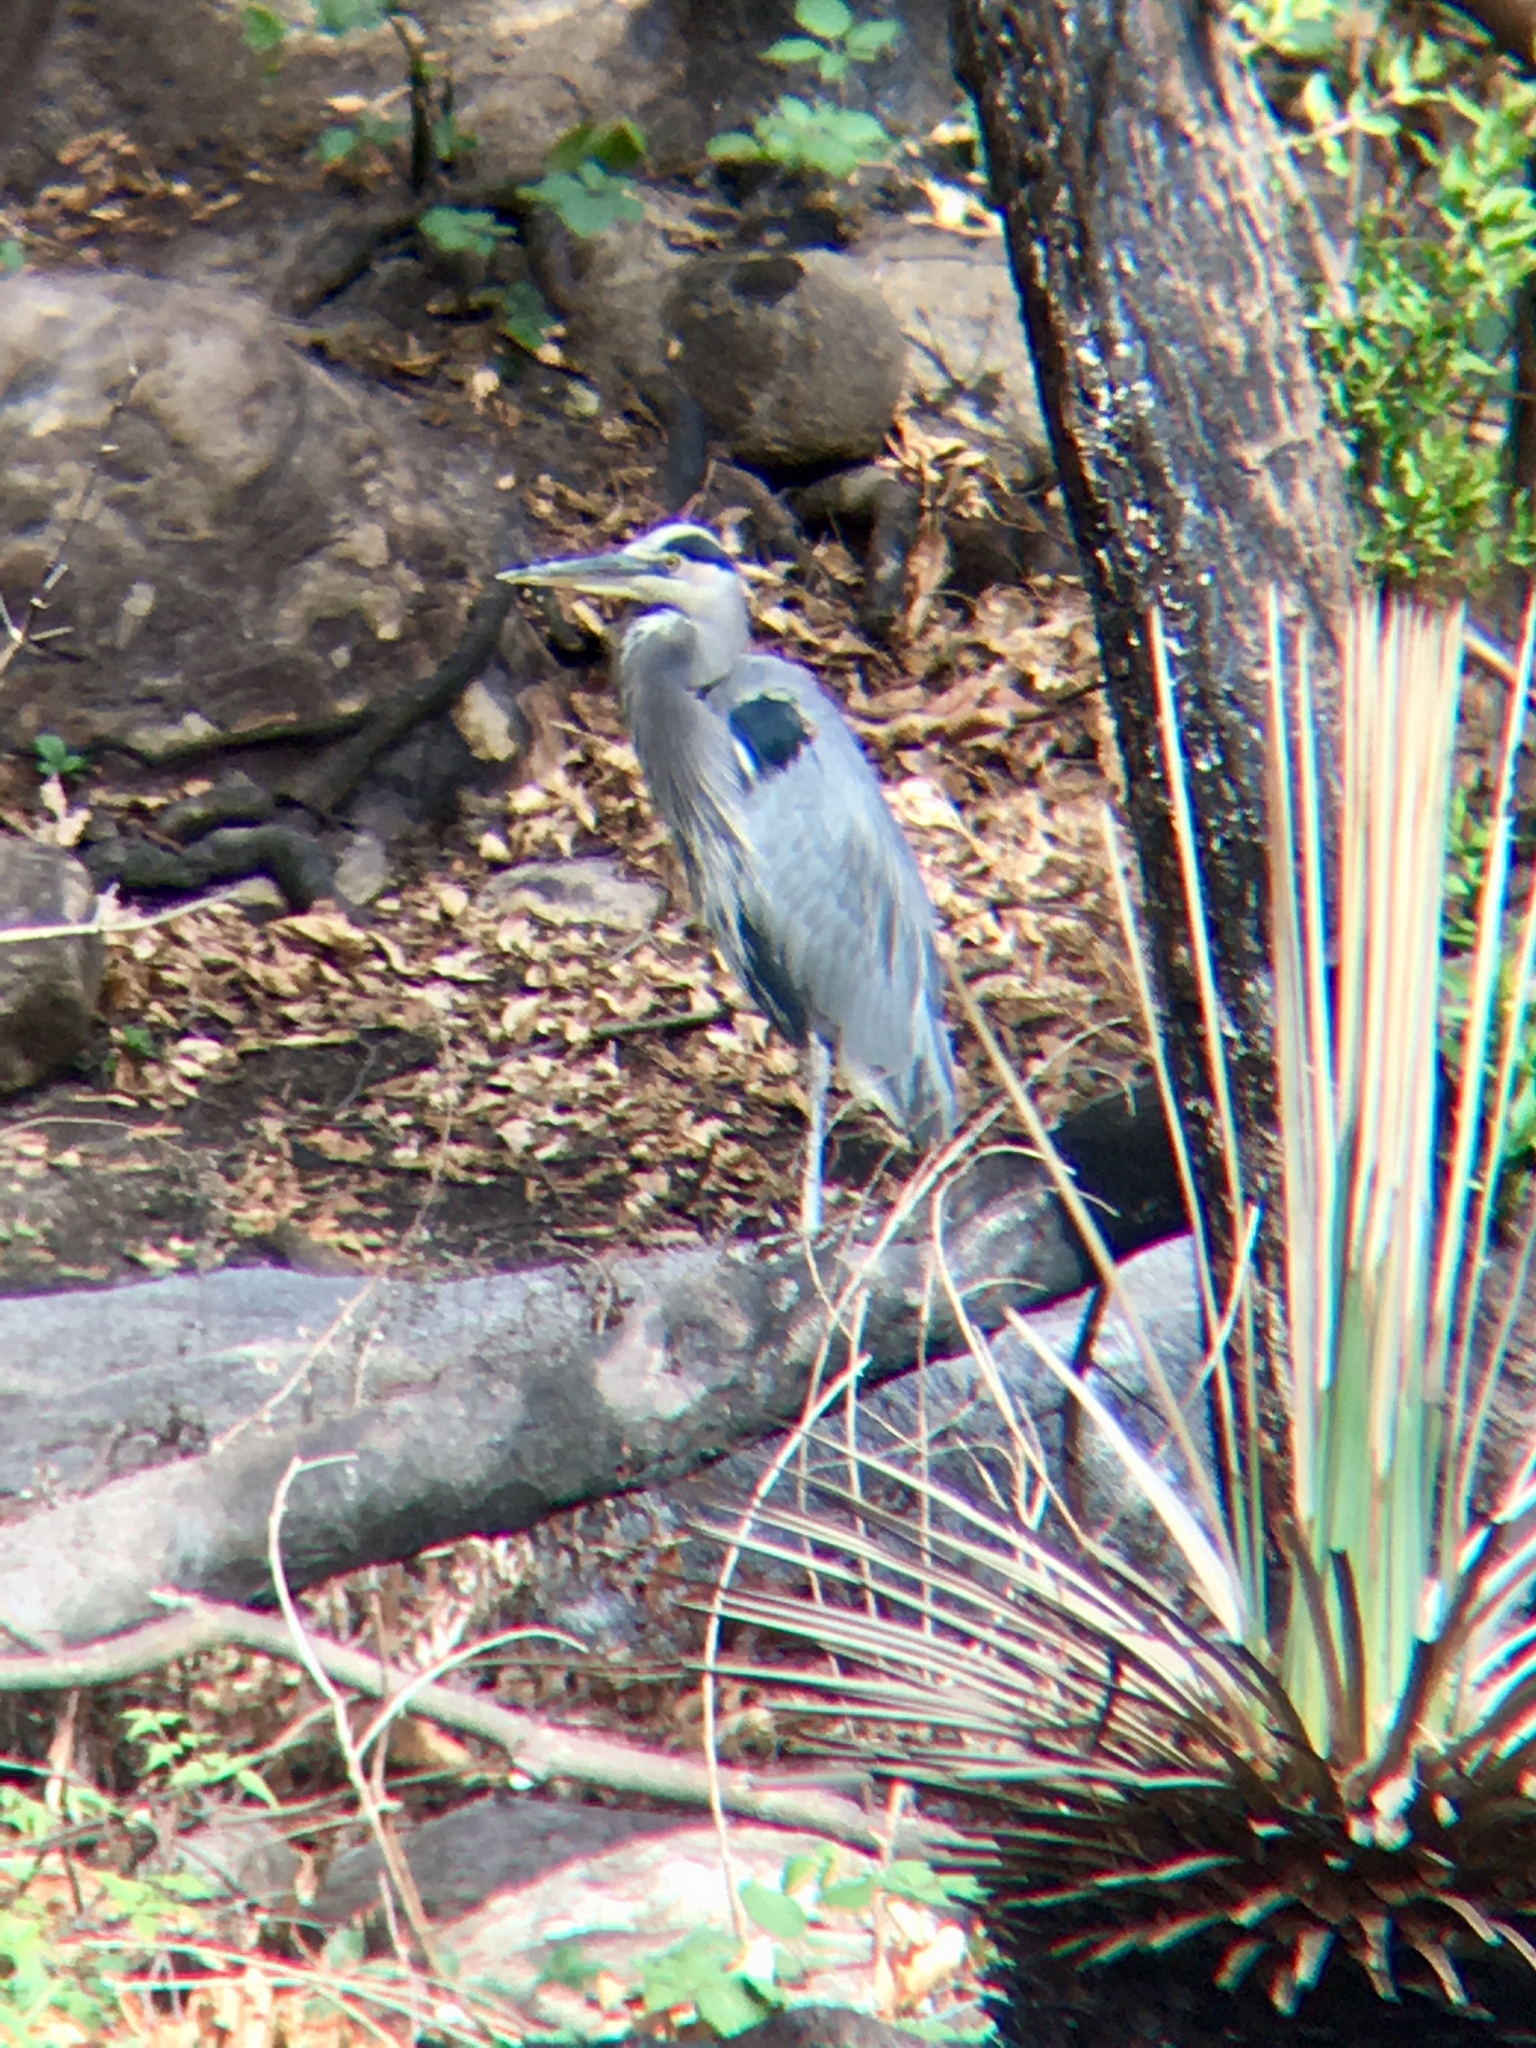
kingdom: Animalia
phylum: Chordata
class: Aves
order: Pelecaniformes
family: Ardeidae
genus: Ardea
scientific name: Ardea herodias
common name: Great blue heron
